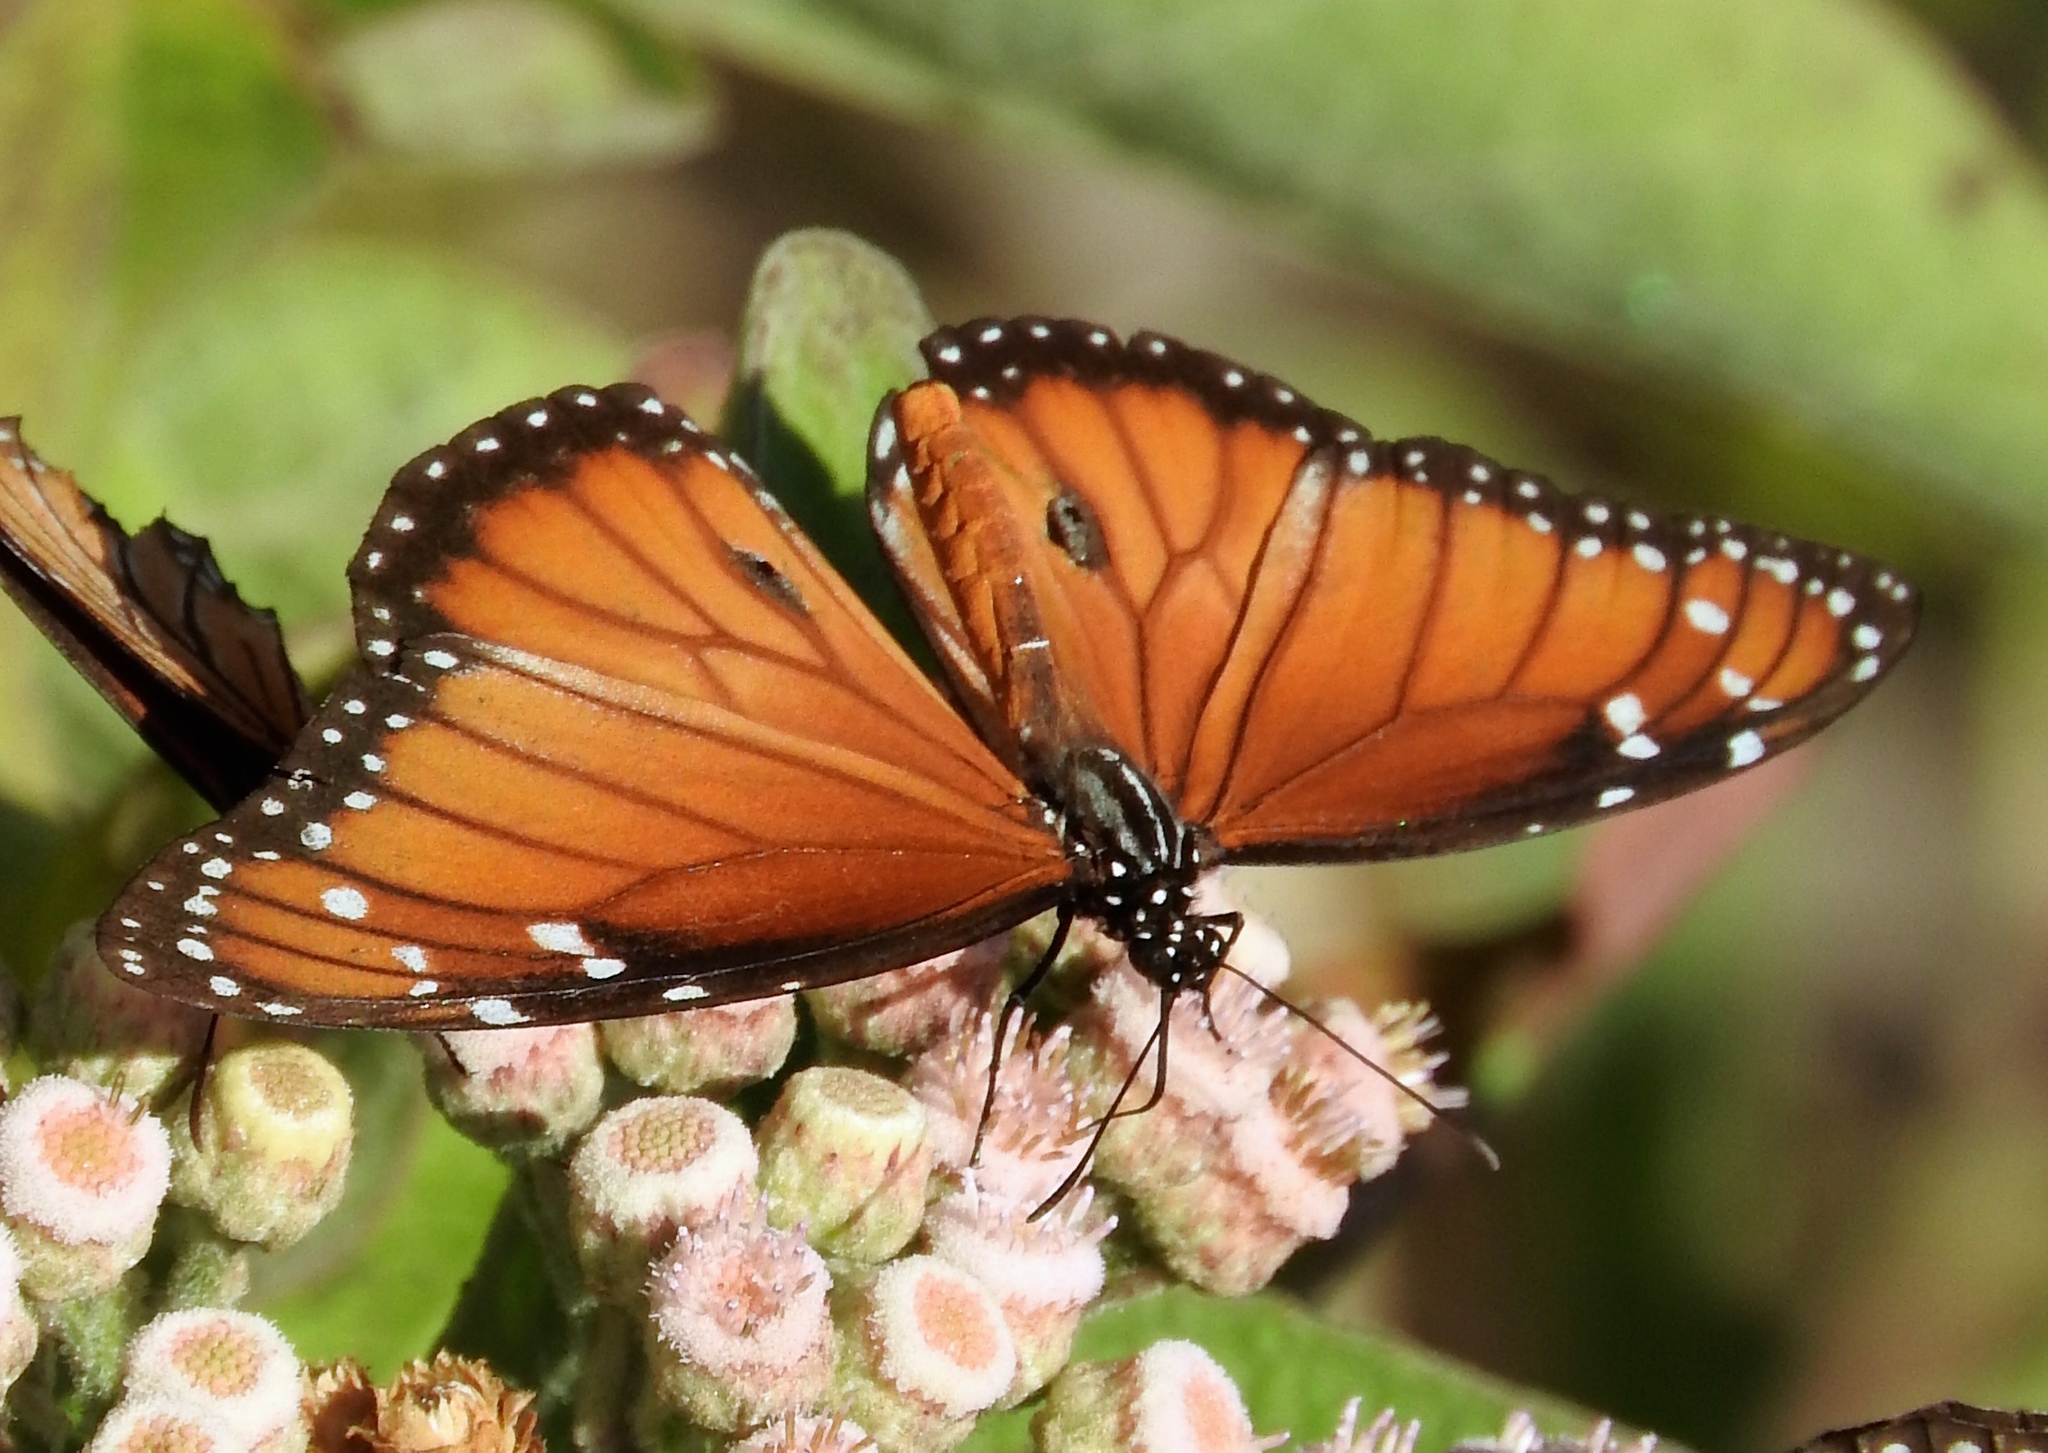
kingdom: Animalia
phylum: Arthropoda
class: Insecta
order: Lepidoptera
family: Nymphalidae
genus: Danaus
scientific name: Danaus eresimus
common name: Soldier
